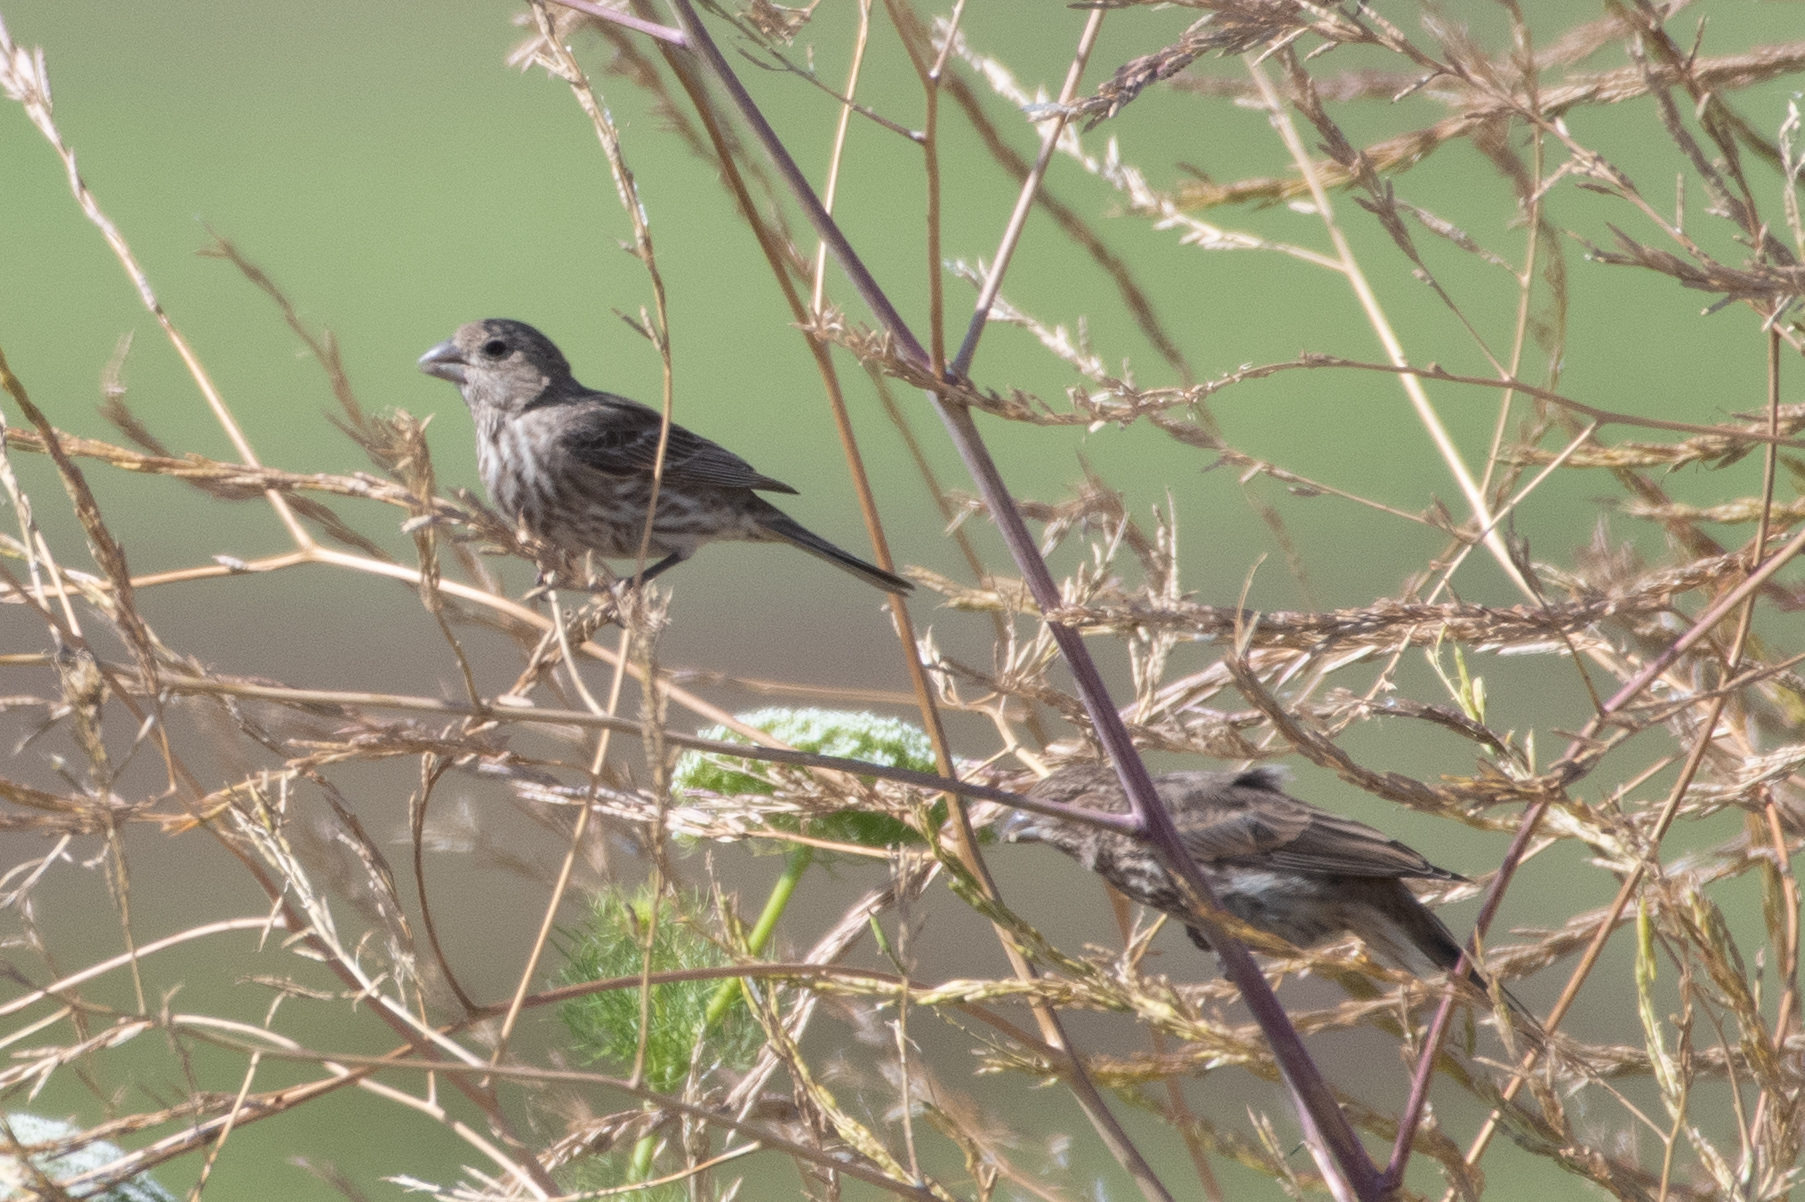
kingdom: Animalia
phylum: Chordata
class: Aves
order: Passeriformes
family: Fringillidae
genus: Haemorhous
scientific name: Haemorhous mexicanus
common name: House finch
